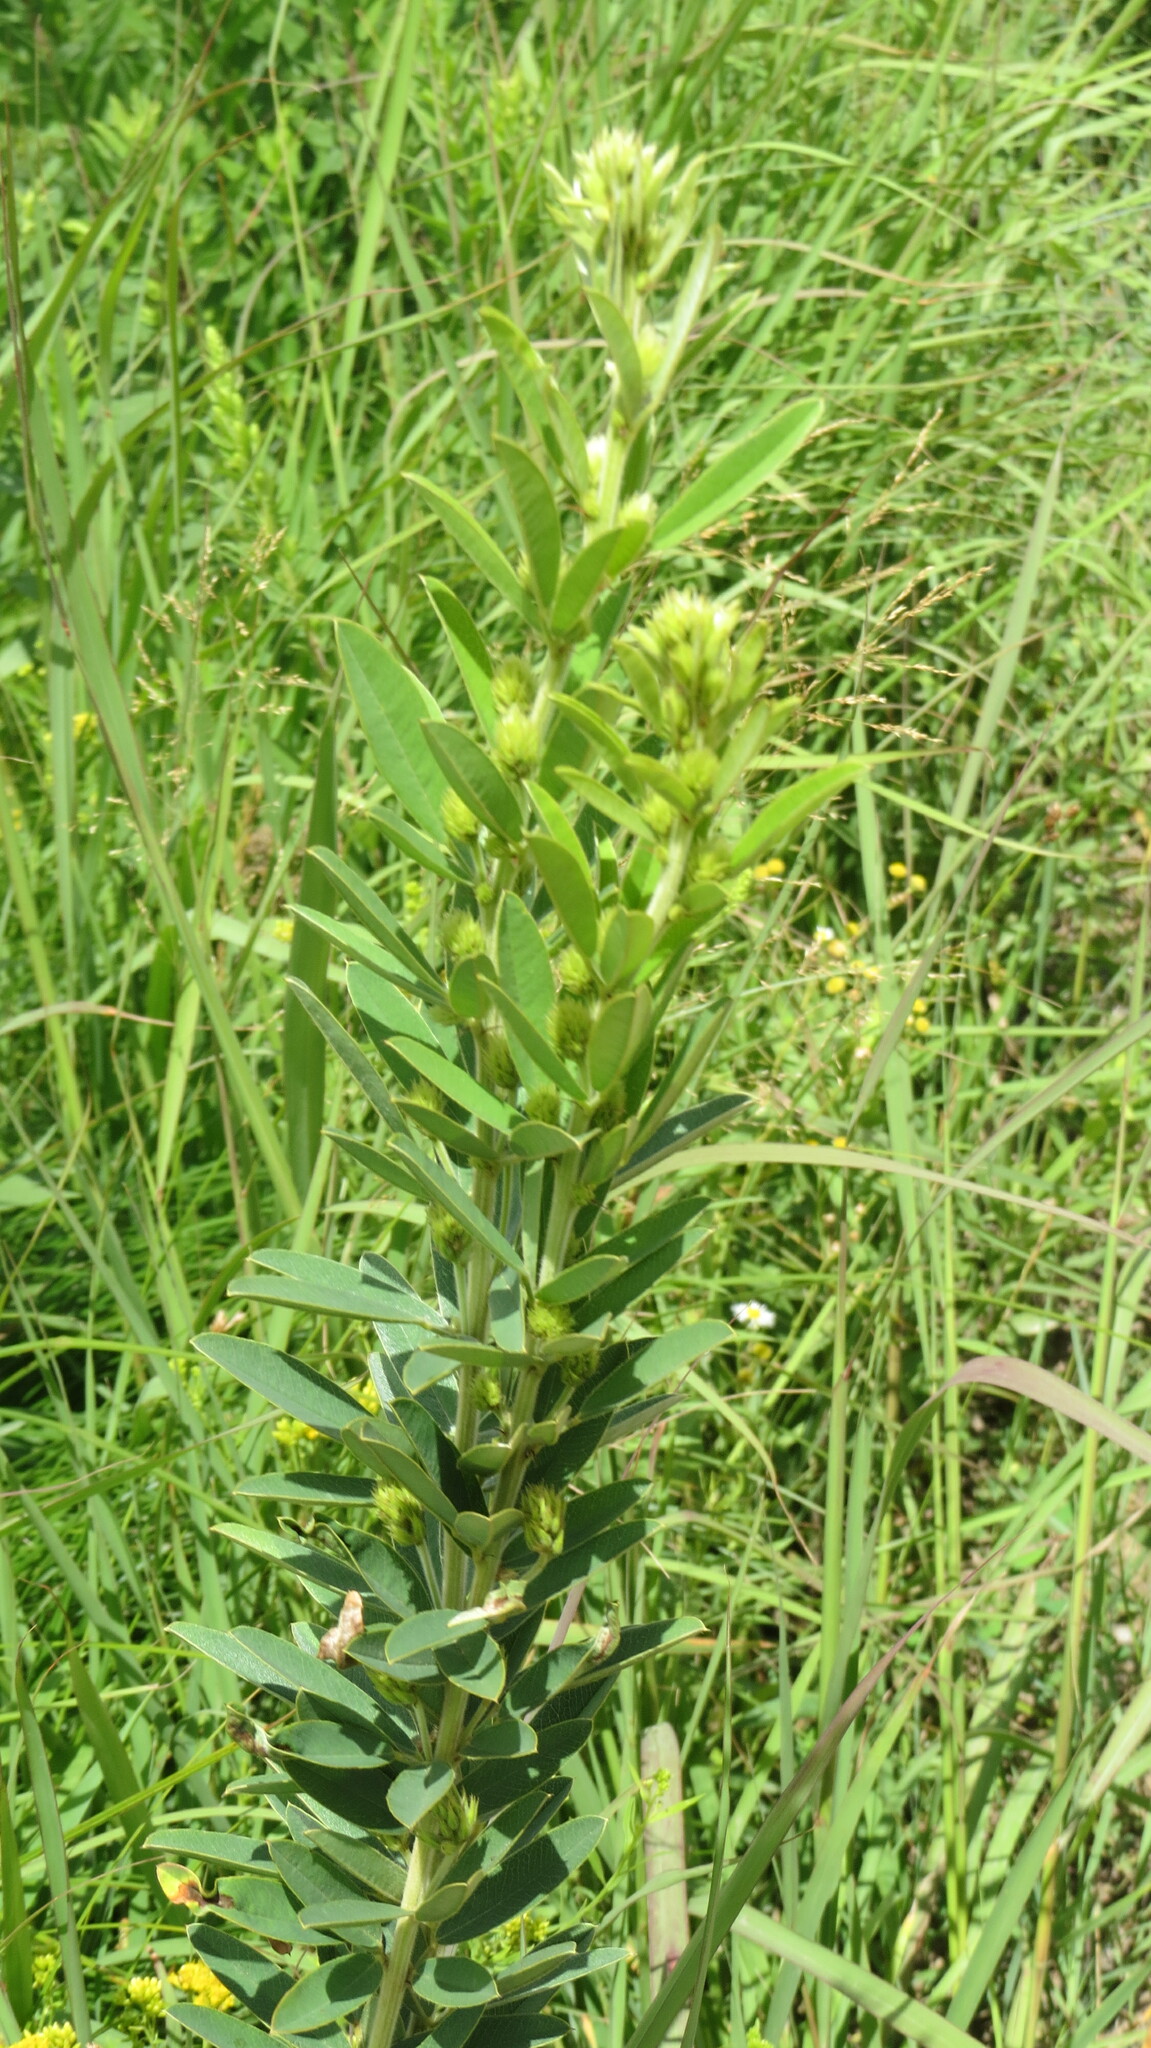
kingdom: Plantae
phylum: Tracheophyta
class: Magnoliopsida
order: Fabales
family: Fabaceae
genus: Lespedeza
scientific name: Lespedeza capitata
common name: Dusty clover
